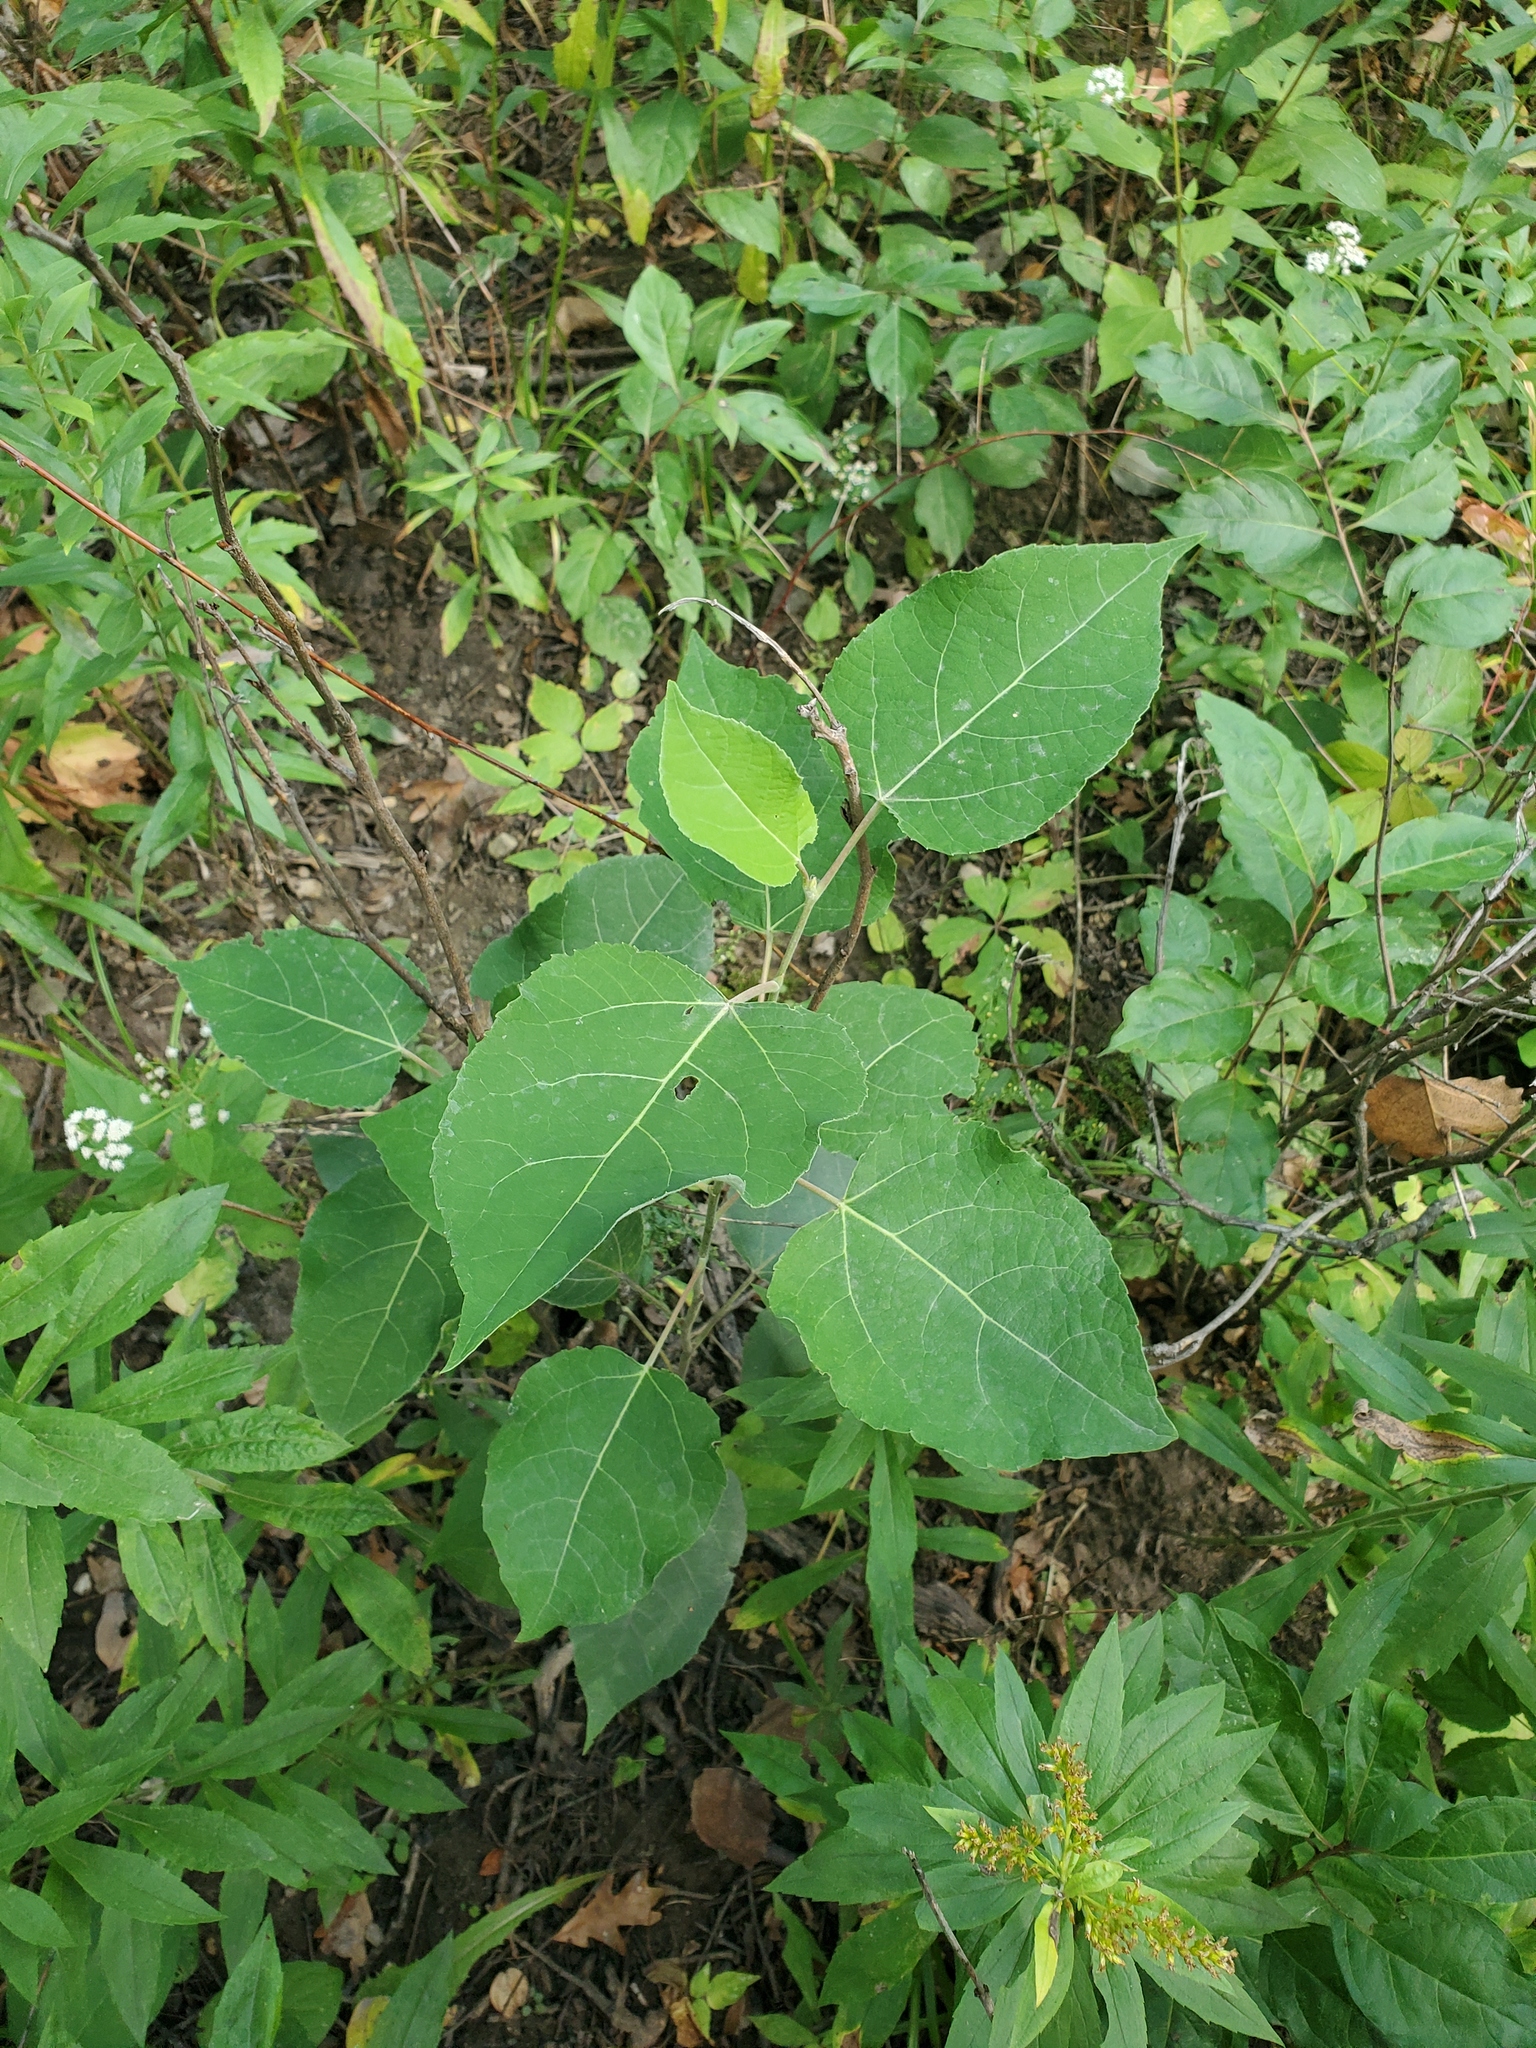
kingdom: Plantae
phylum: Tracheophyta
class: Magnoliopsida
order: Malpighiales
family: Salicaceae
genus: Populus
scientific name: Populus grandidentata
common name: Bigtooth aspen
